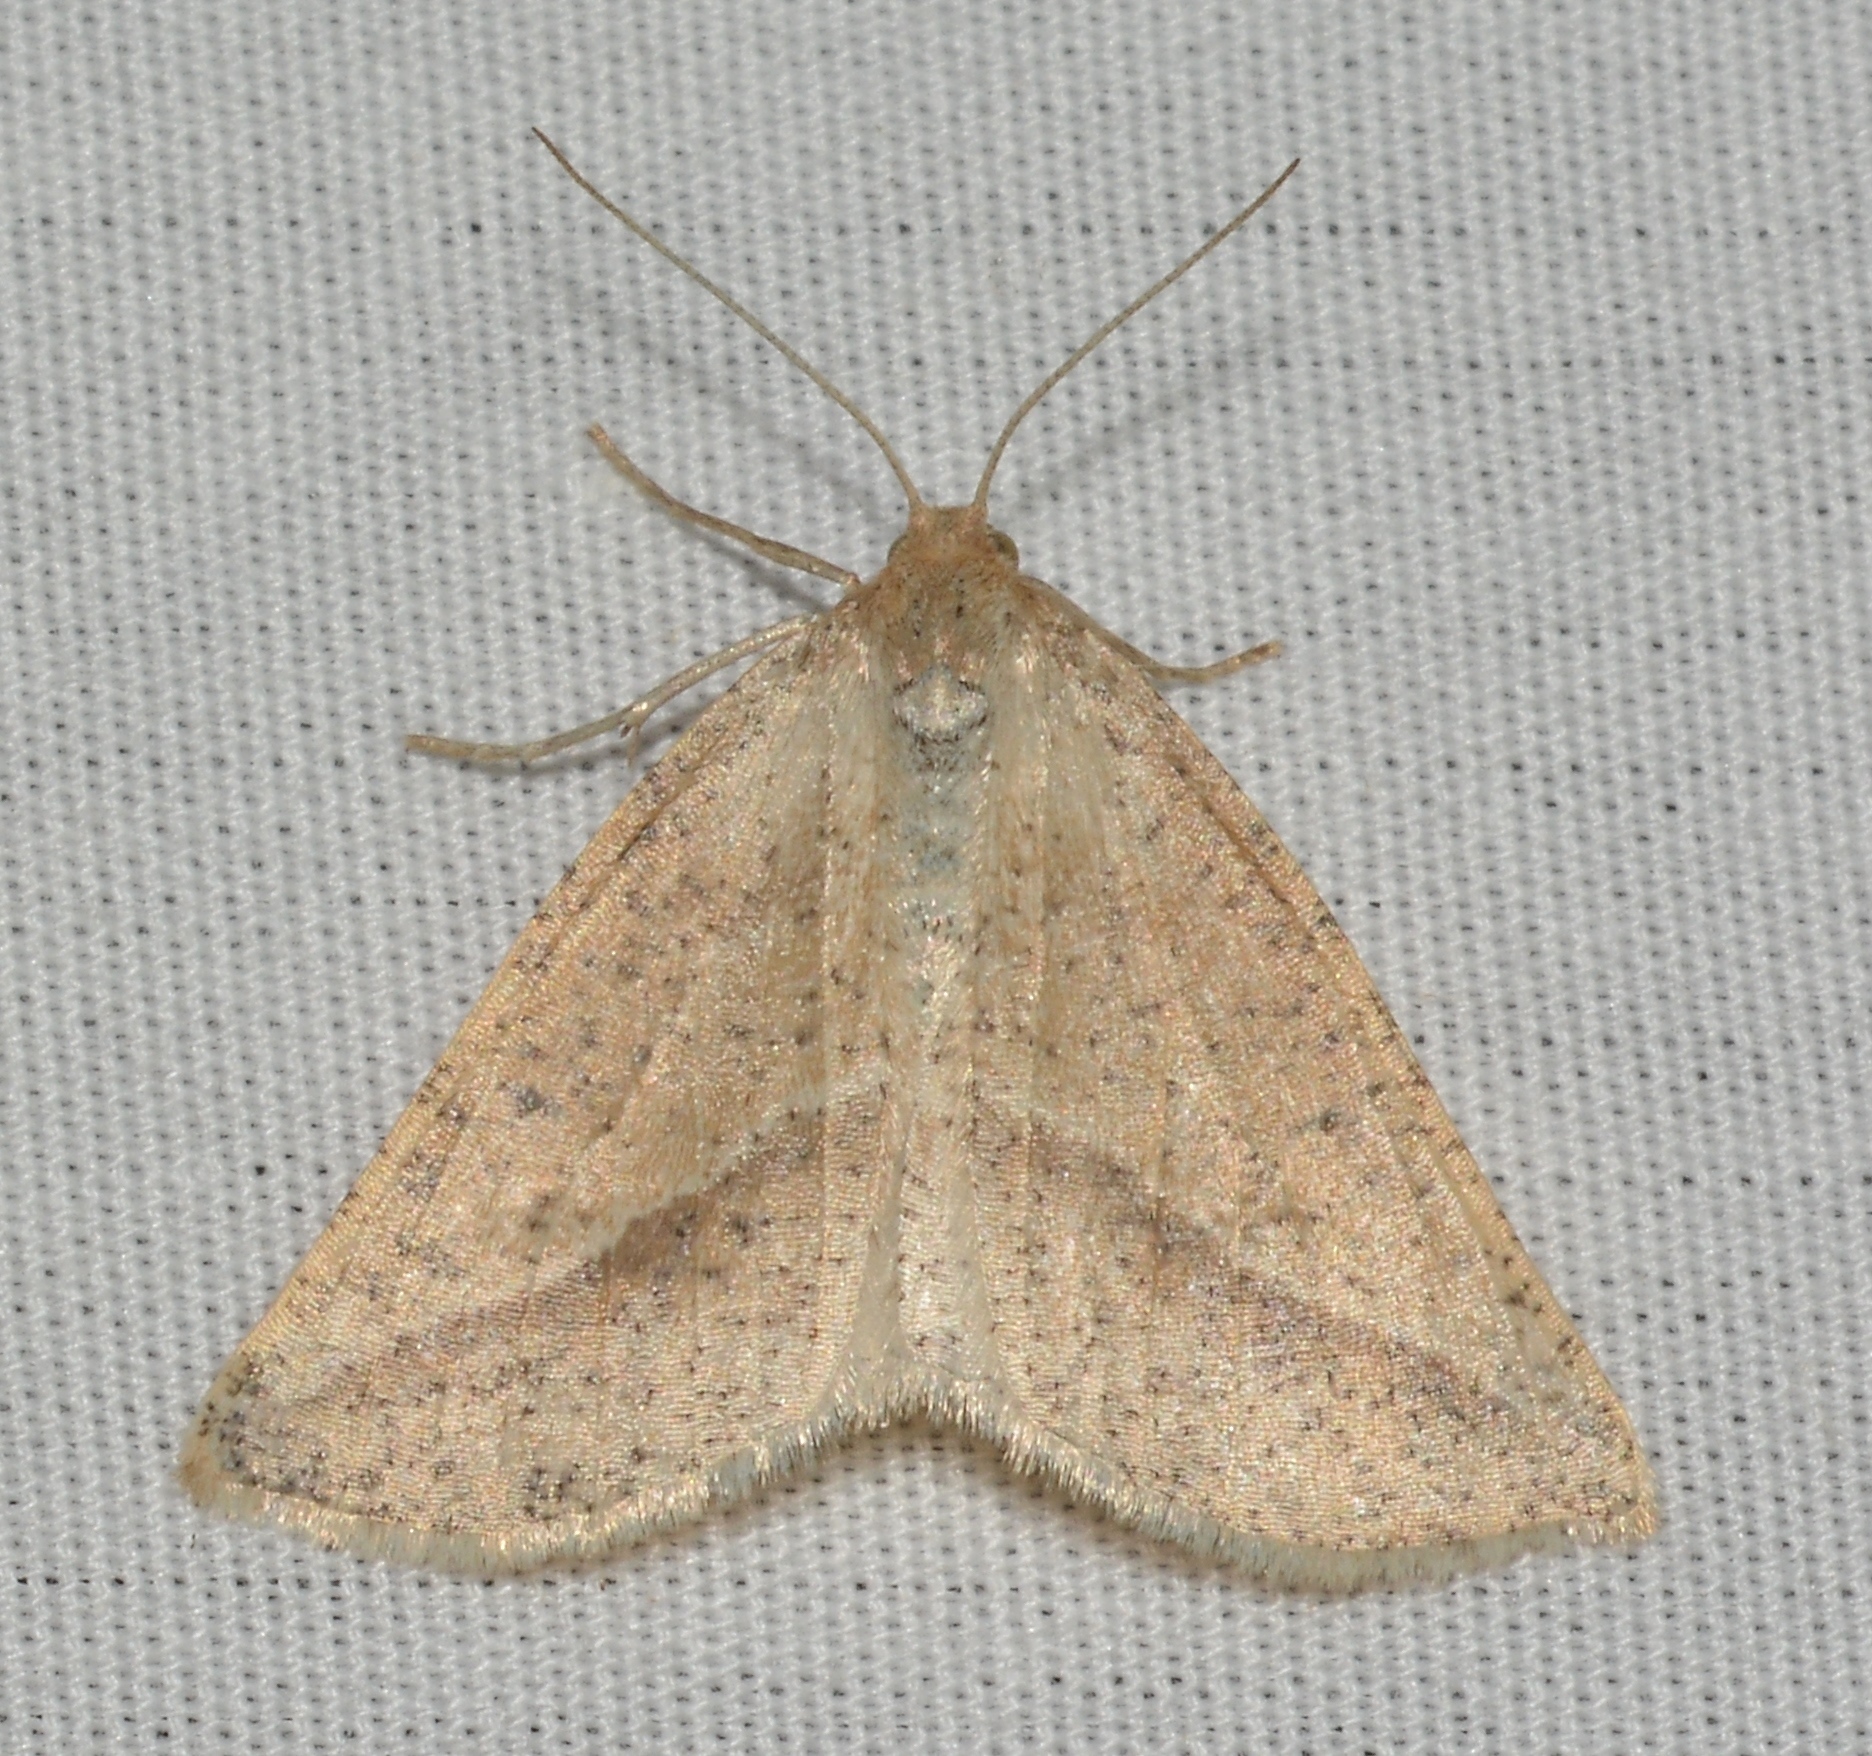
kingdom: Animalia
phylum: Arthropoda
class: Insecta
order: Lepidoptera
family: Geometridae
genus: Lychnosea
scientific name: Lychnosea intermicata
